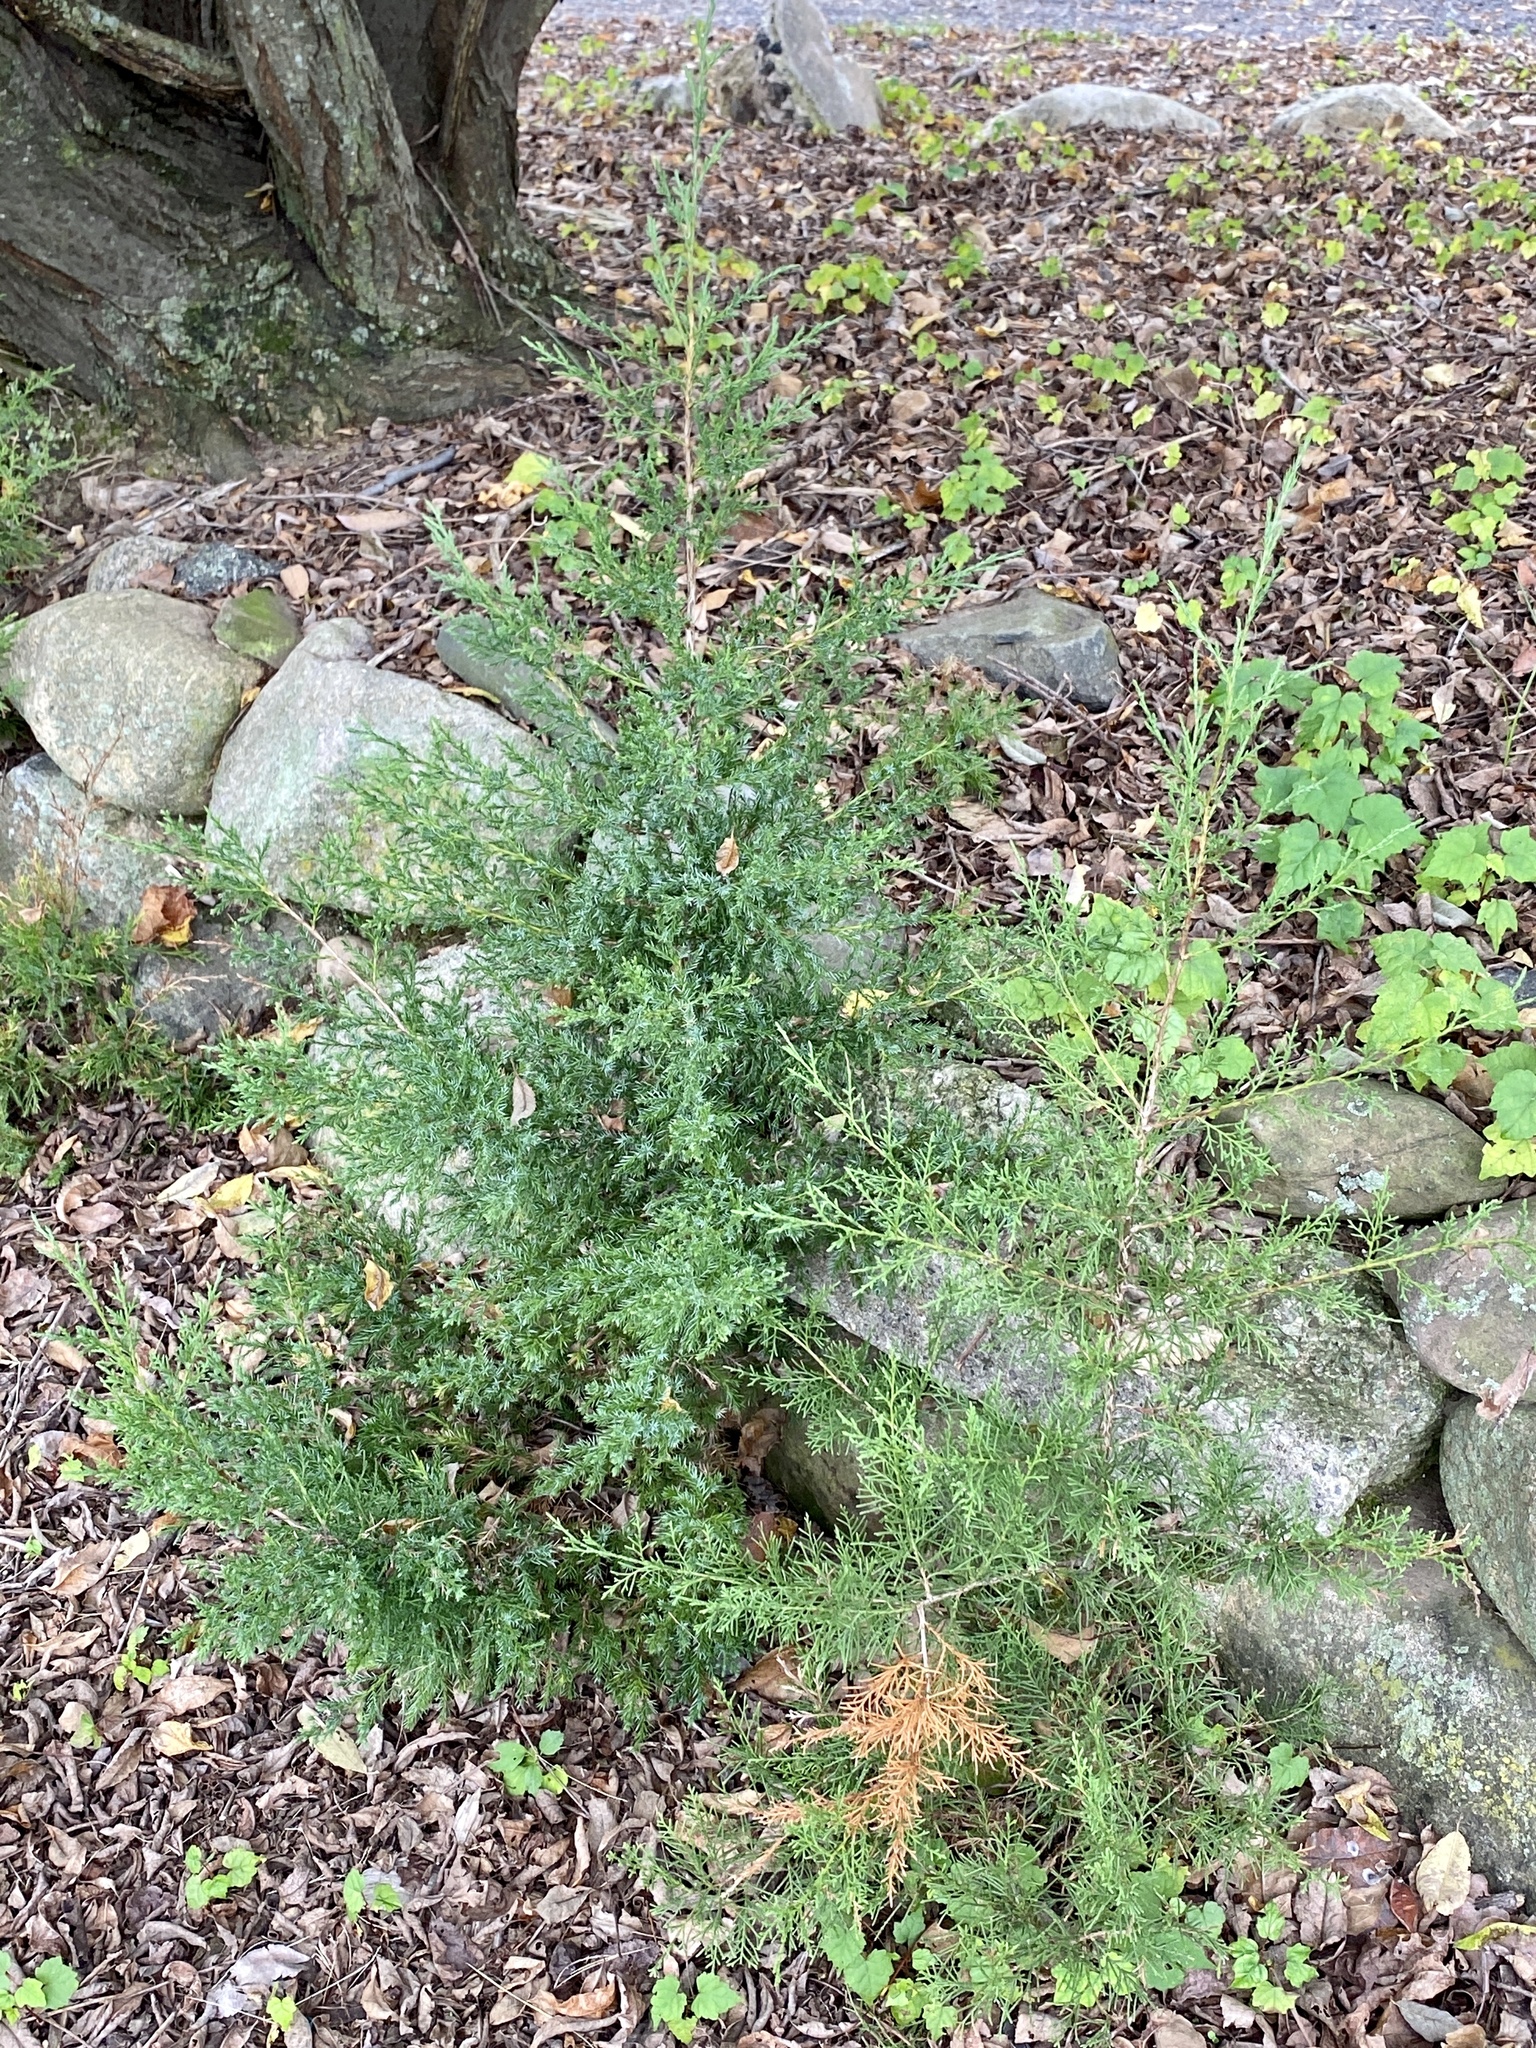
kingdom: Plantae
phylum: Tracheophyta
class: Pinopsida
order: Pinales
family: Cupressaceae
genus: Juniperus
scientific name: Juniperus virginiana
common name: Red juniper
